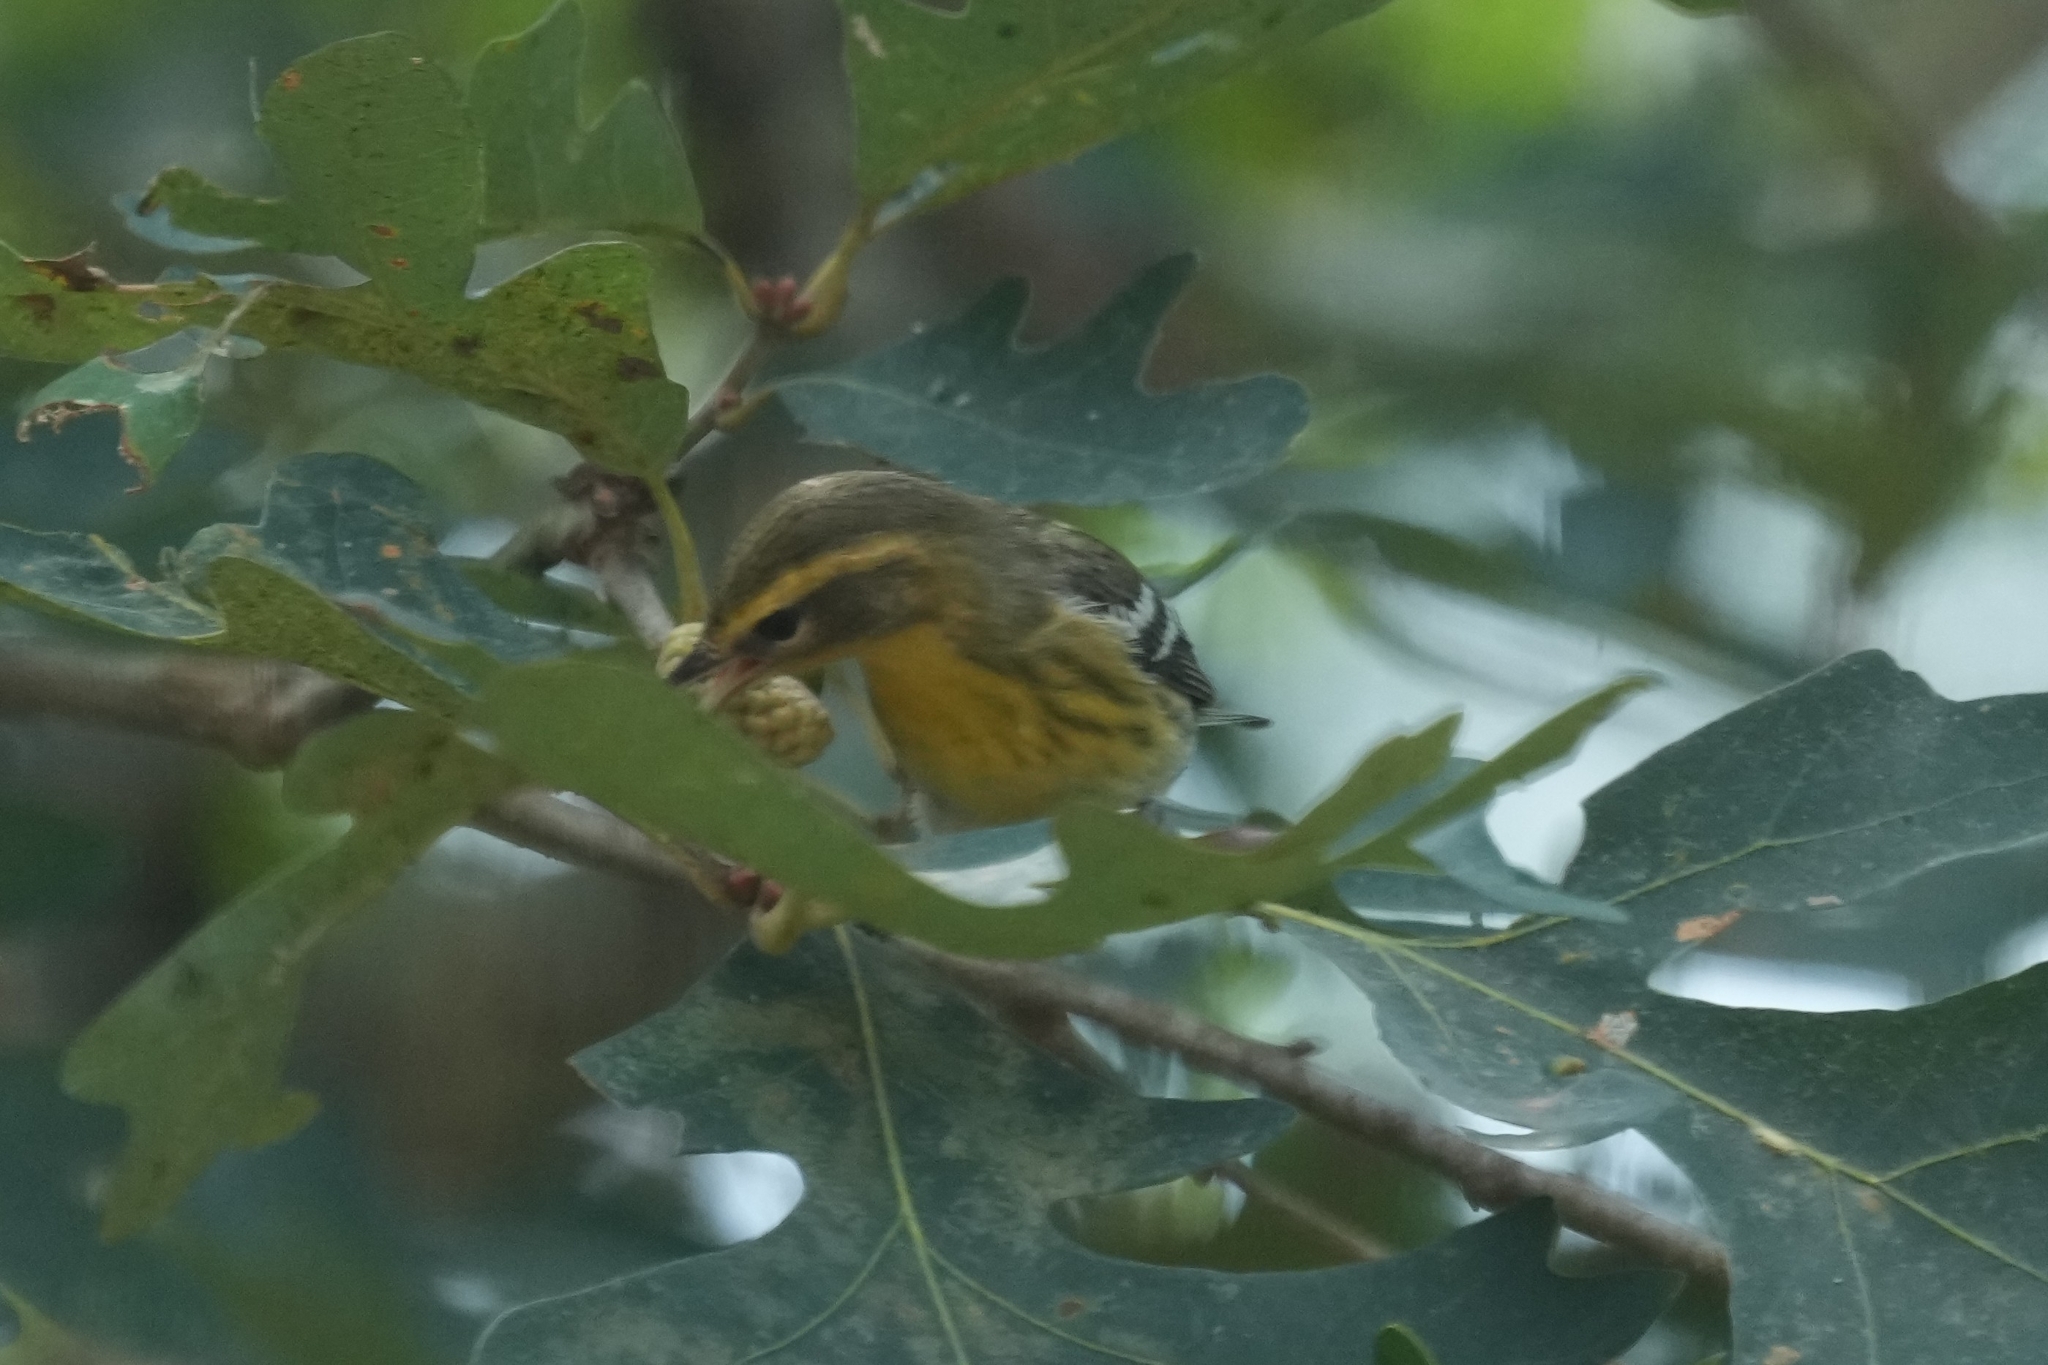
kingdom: Animalia
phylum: Chordata
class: Aves
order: Passeriformes
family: Parulidae
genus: Setophaga
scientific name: Setophaga fusca
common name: Blackburnian warbler
